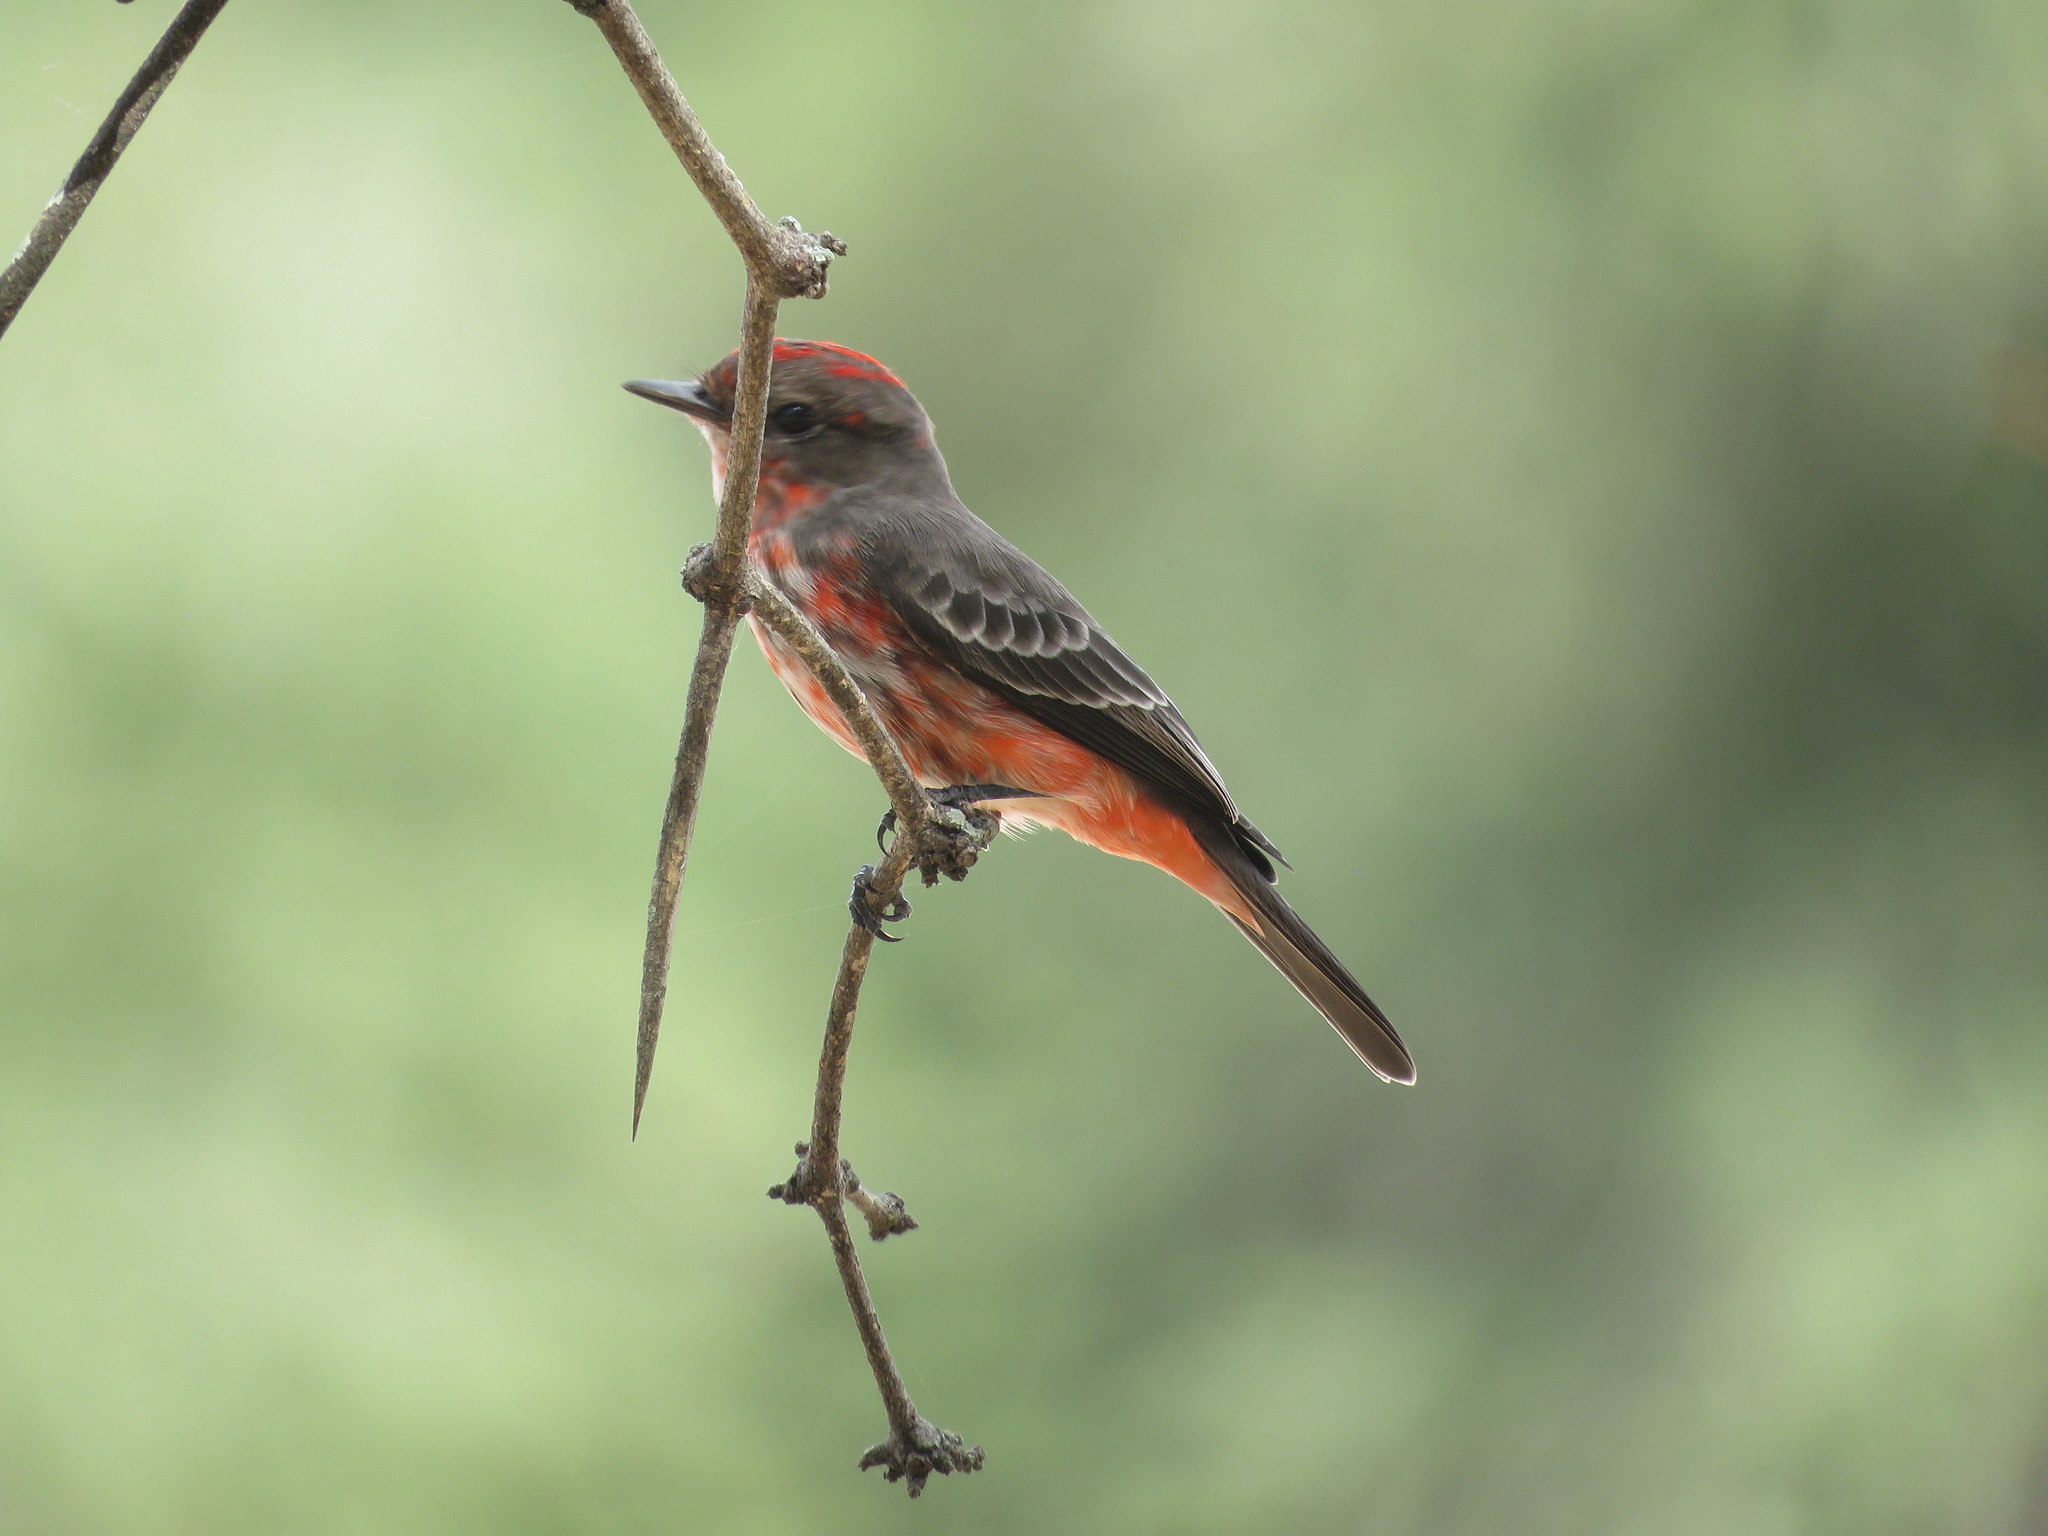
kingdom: Animalia
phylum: Chordata
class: Aves
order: Passeriformes
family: Tyrannidae
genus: Pyrocephalus
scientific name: Pyrocephalus rubinus
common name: Vermilion flycatcher
